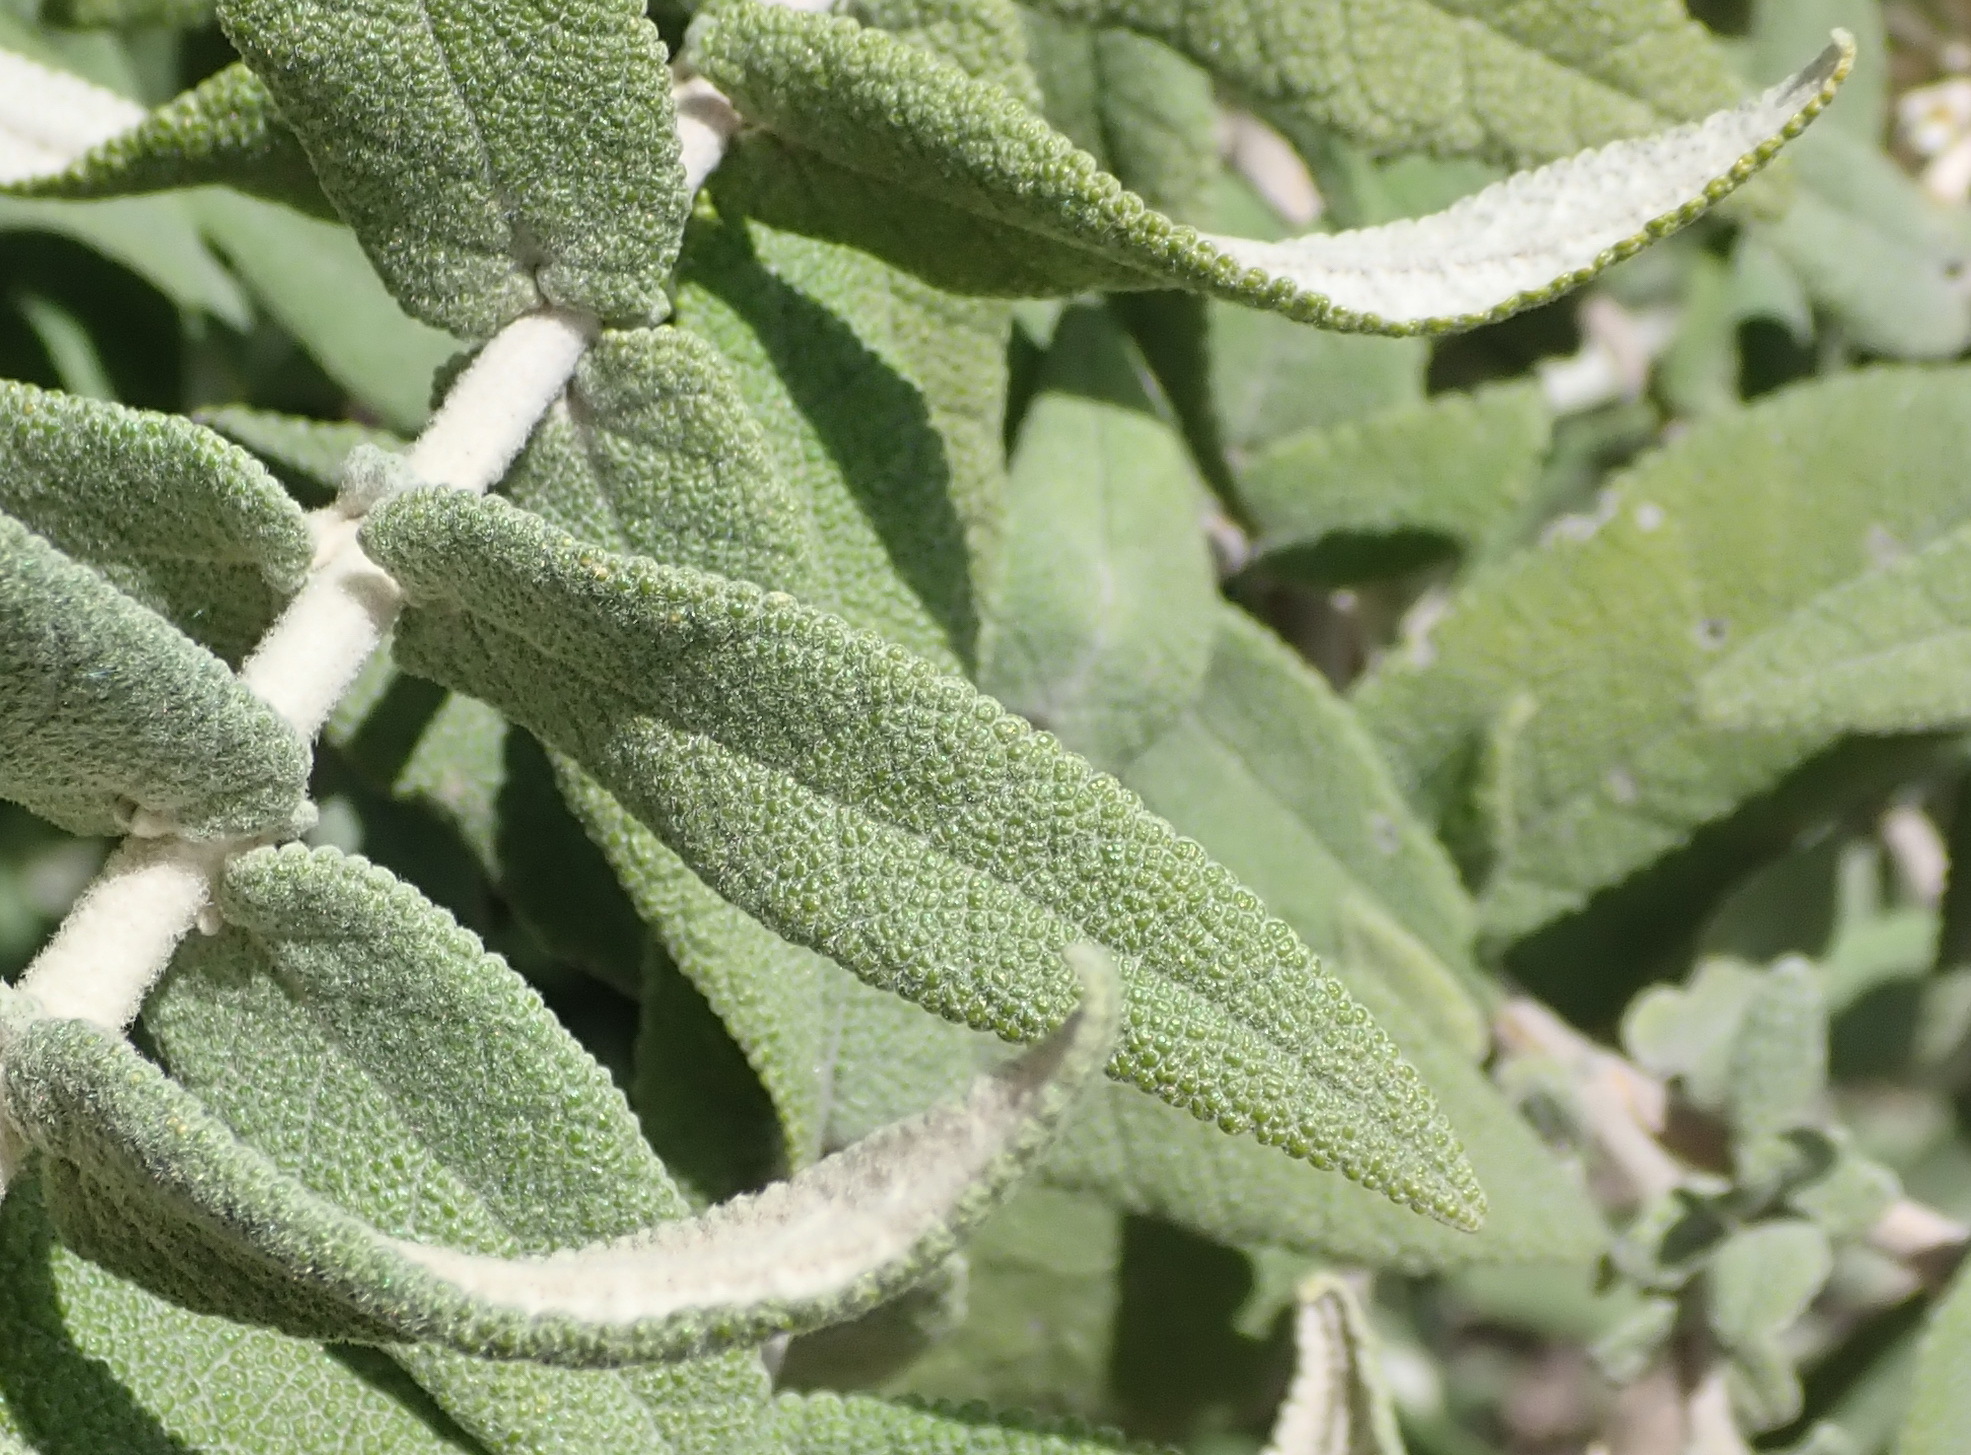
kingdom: Plantae
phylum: Tracheophyta
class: Magnoliopsida
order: Lamiales
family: Scrophulariaceae
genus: Buddleja
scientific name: Buddleja salviifolia
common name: Sagewood
